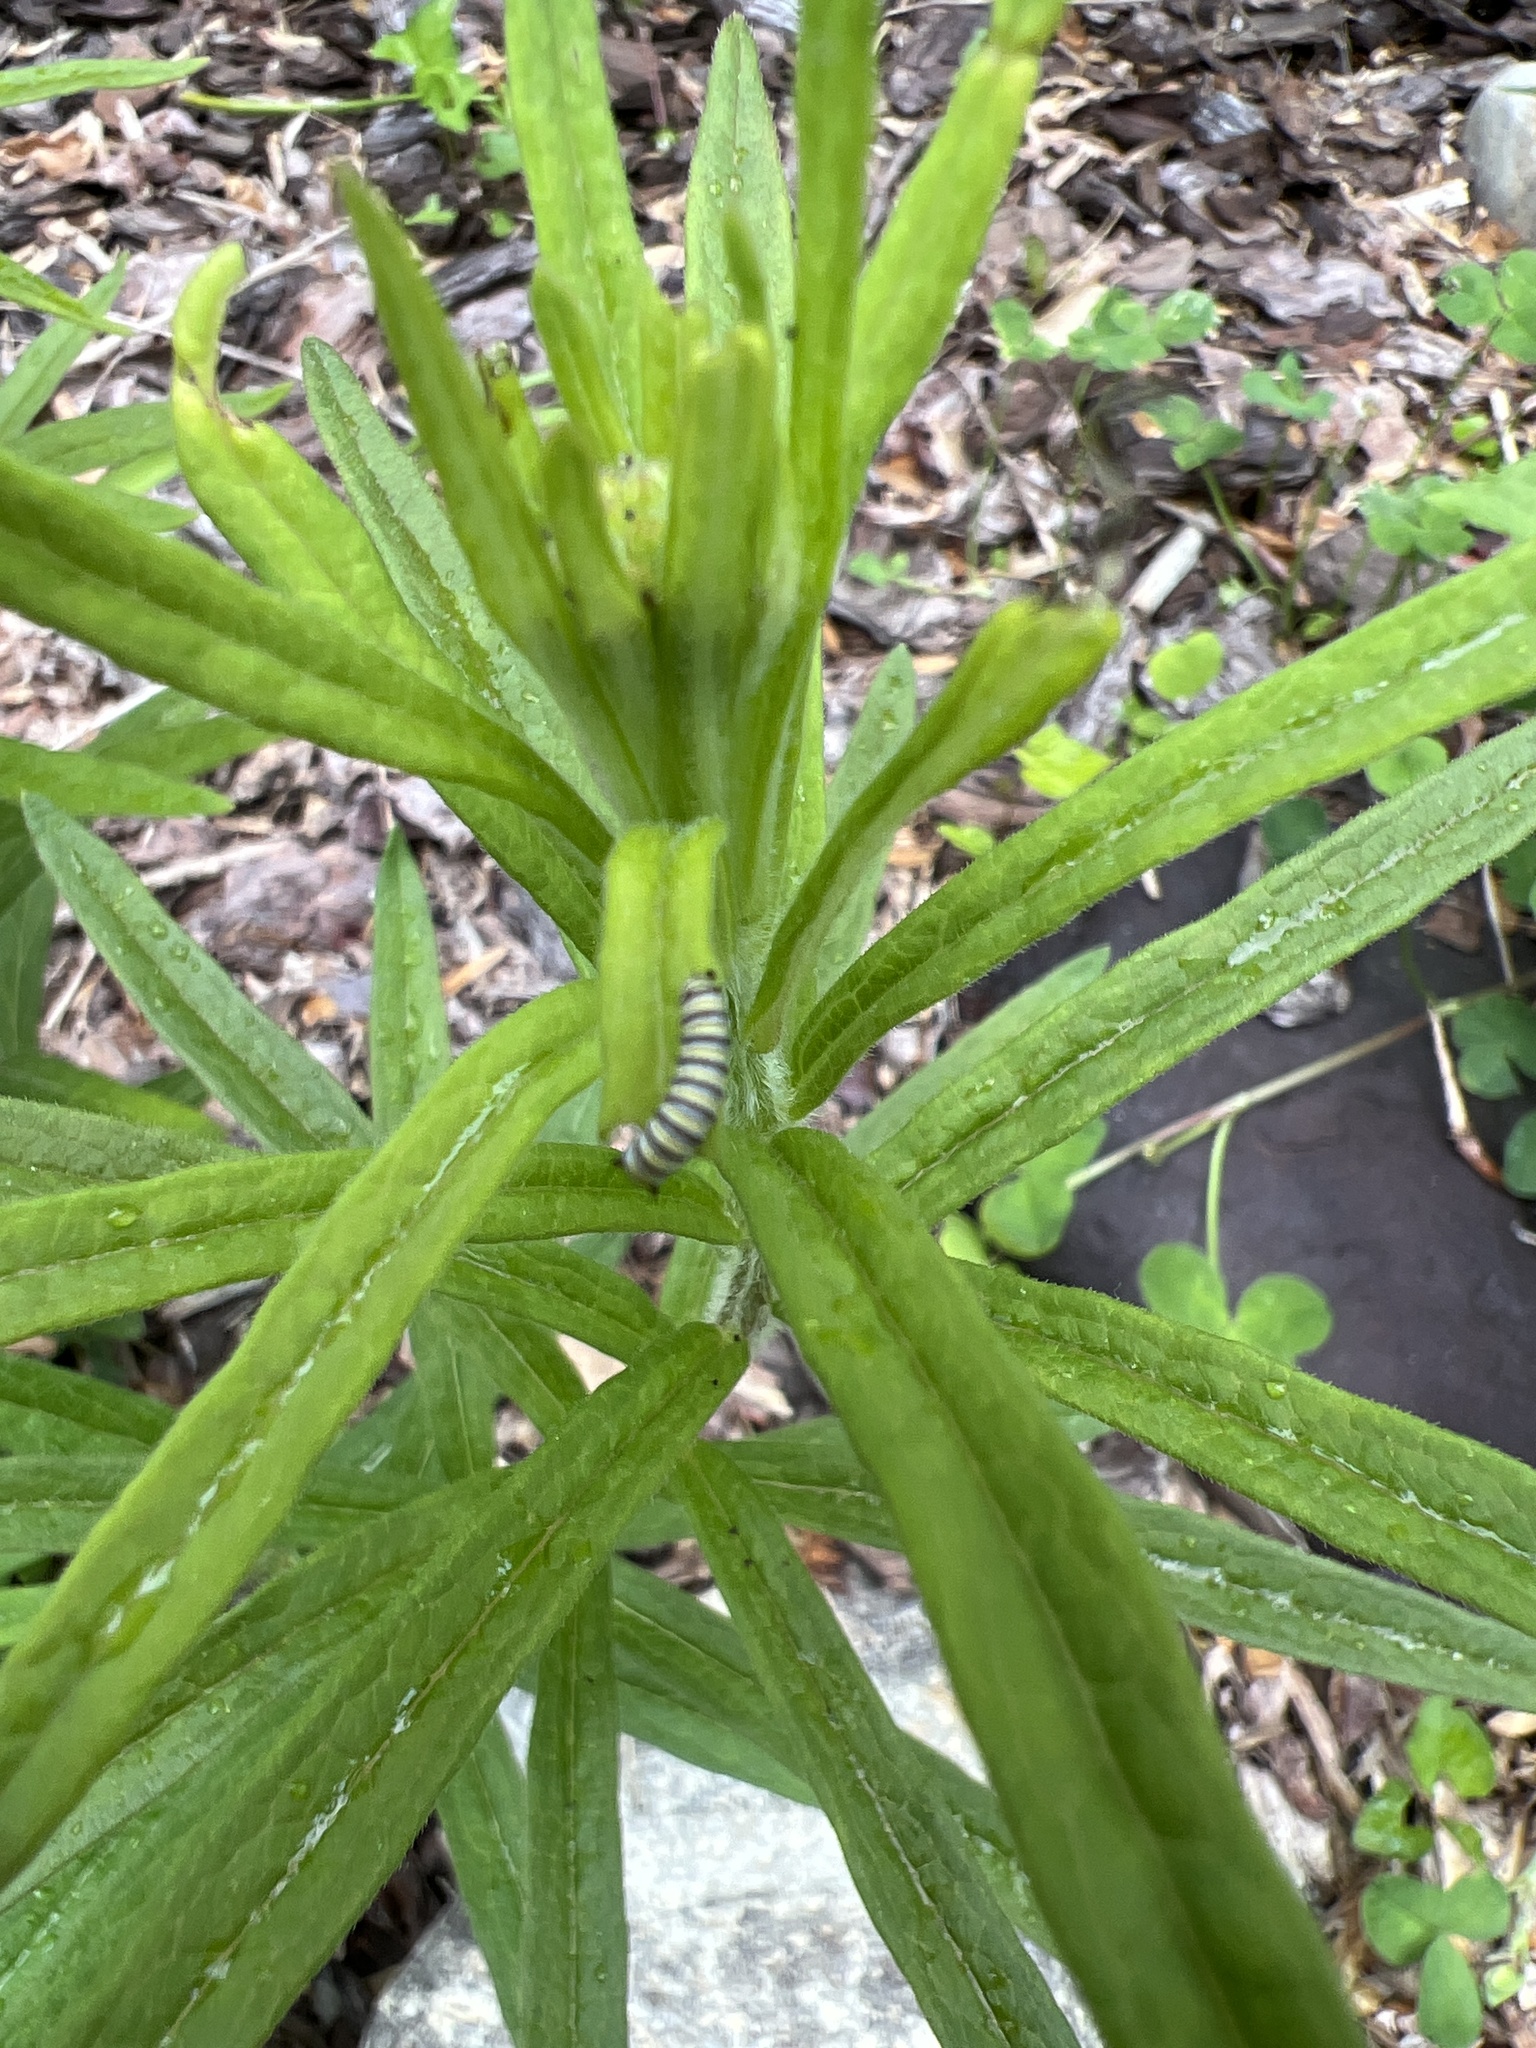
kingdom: Animalia
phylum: Arthropoda
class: Insecta
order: Lepidoptera
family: Nymphalidae
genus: Danaus
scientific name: Danaus plexippus
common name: Monarch
